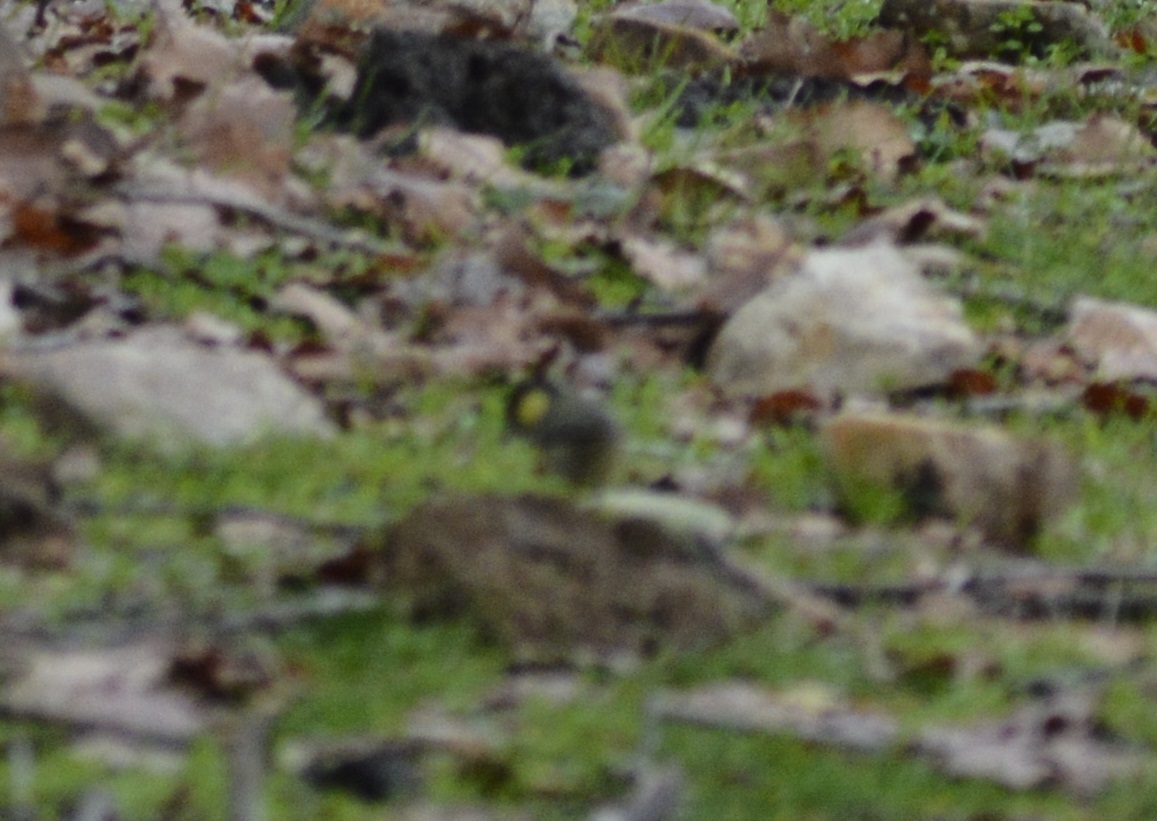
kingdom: Animalia
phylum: Chordata
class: Aves
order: Passeriformes
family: Paridae
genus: Periparus
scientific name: Periparus ater
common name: Coal tit
